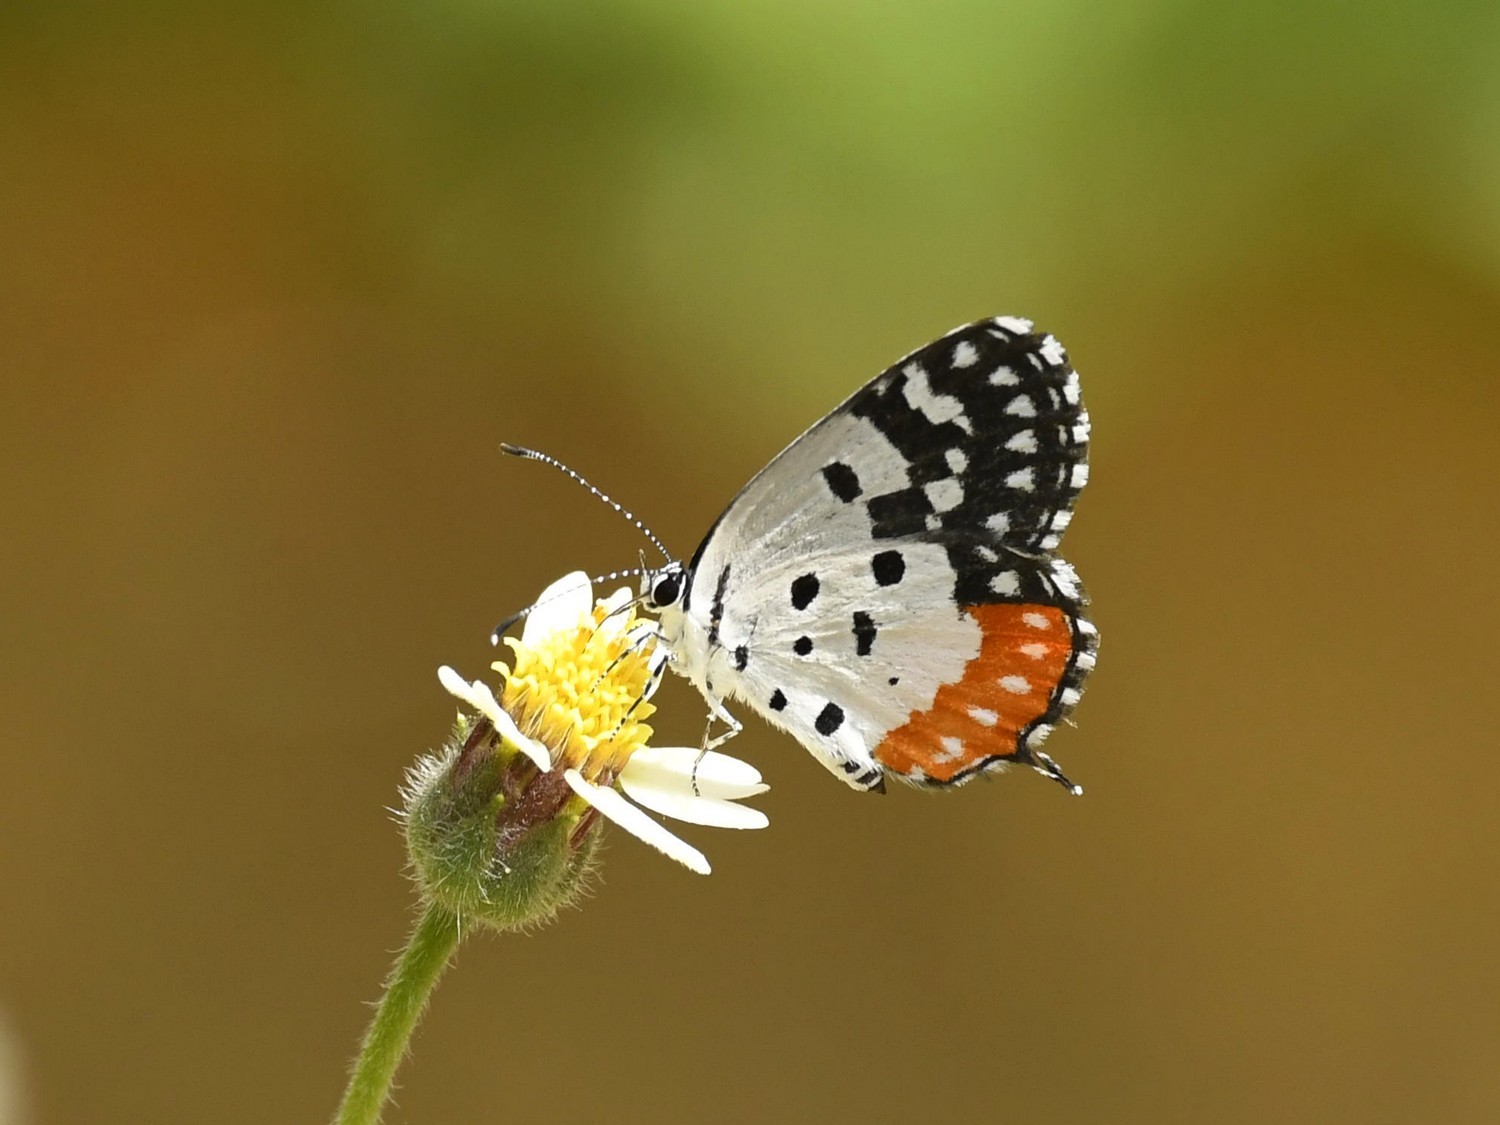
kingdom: Animalia
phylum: Arthropoda
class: Insecta
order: Lepidoptera
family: Lycaenidae
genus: Talicada
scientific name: Talicada nyseus
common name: Red pierrot
